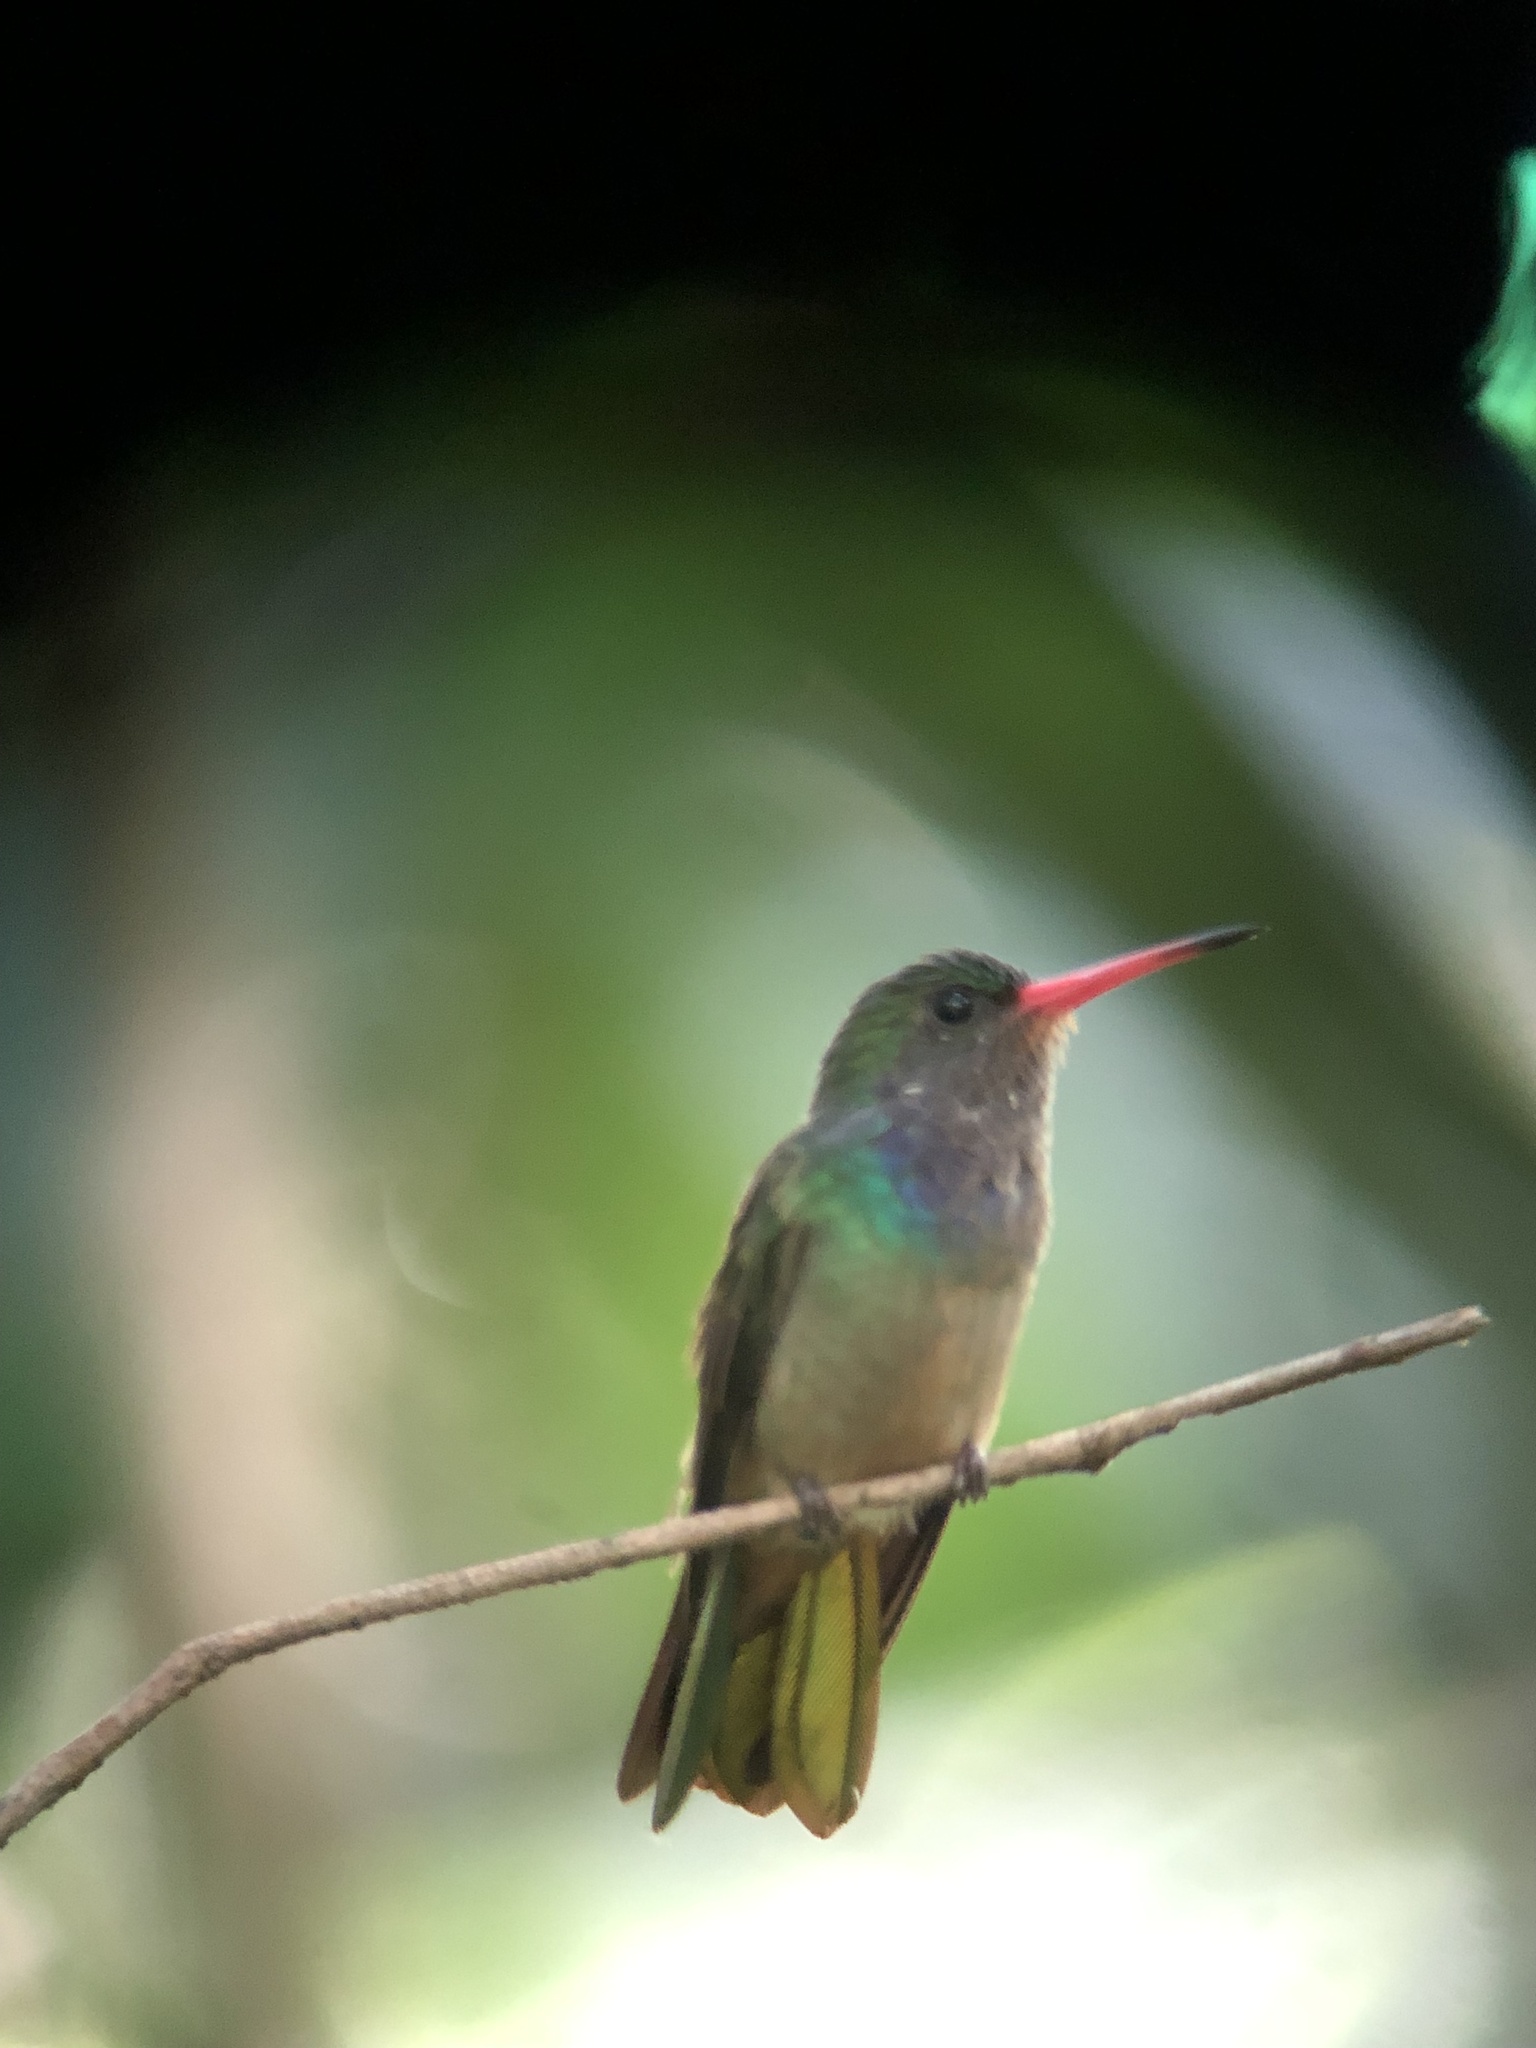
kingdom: Animalia
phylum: Chordata
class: Aves
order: Apodiformes
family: Trochilidae
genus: Chlorestes
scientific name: Chlorestes eliciae
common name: Blue-throated sapphire
